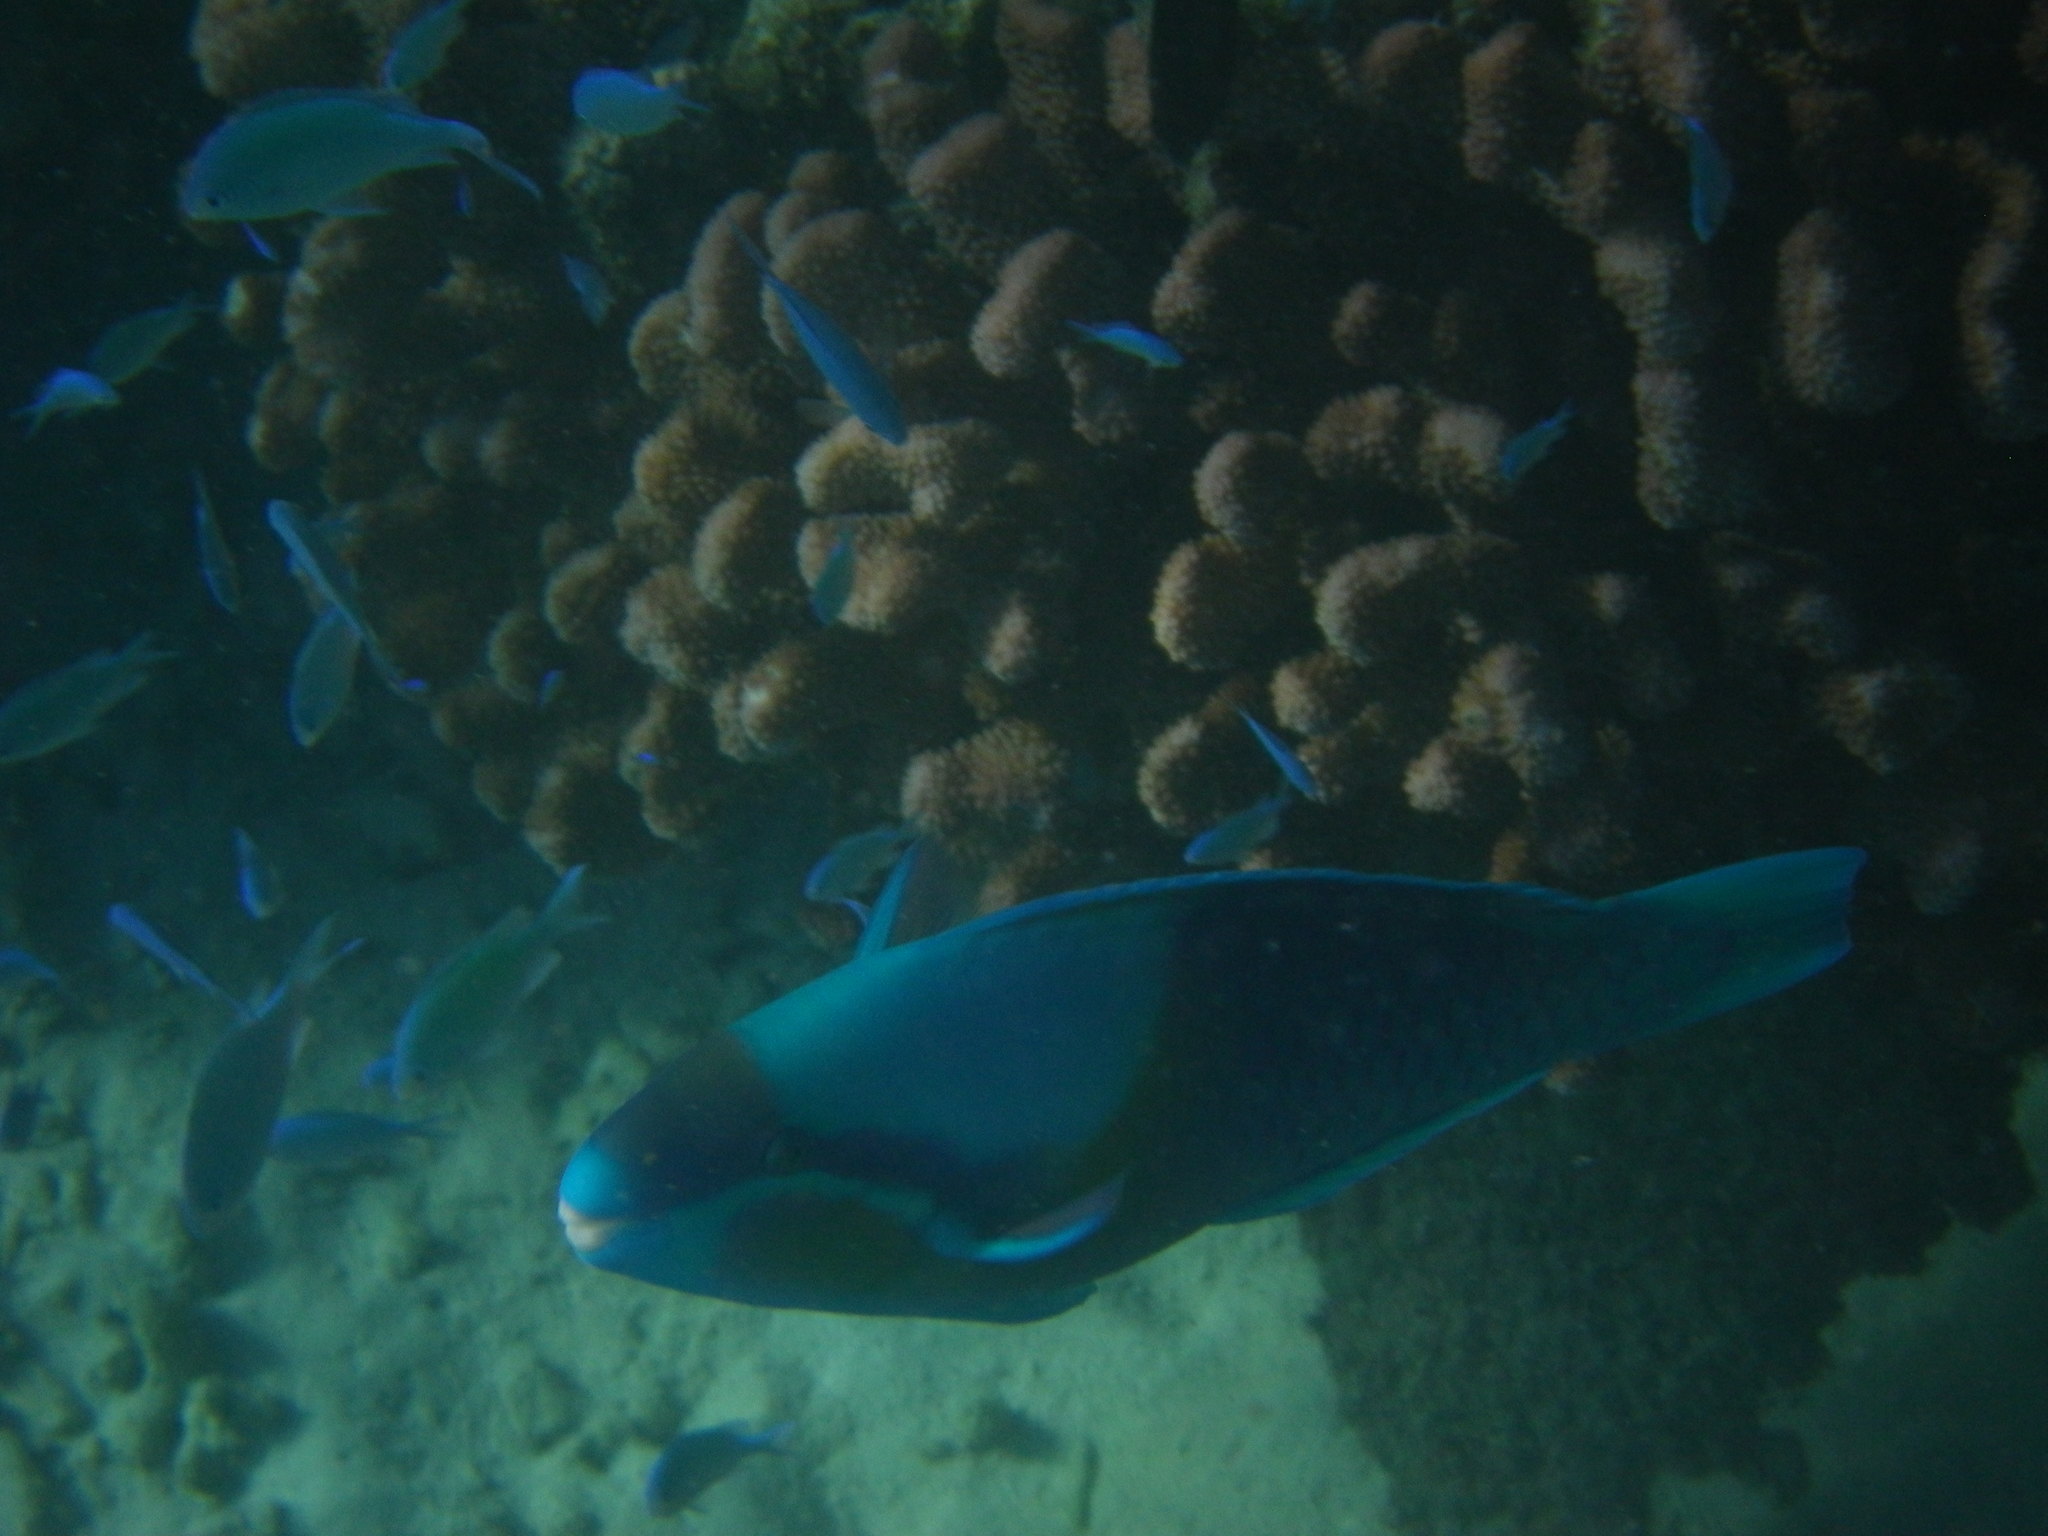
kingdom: Animalia
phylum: Chordata
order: Perciformes
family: Scaridae
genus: Scarus
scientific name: Scarus dimidiatus
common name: Yellowbarred parrotfish
